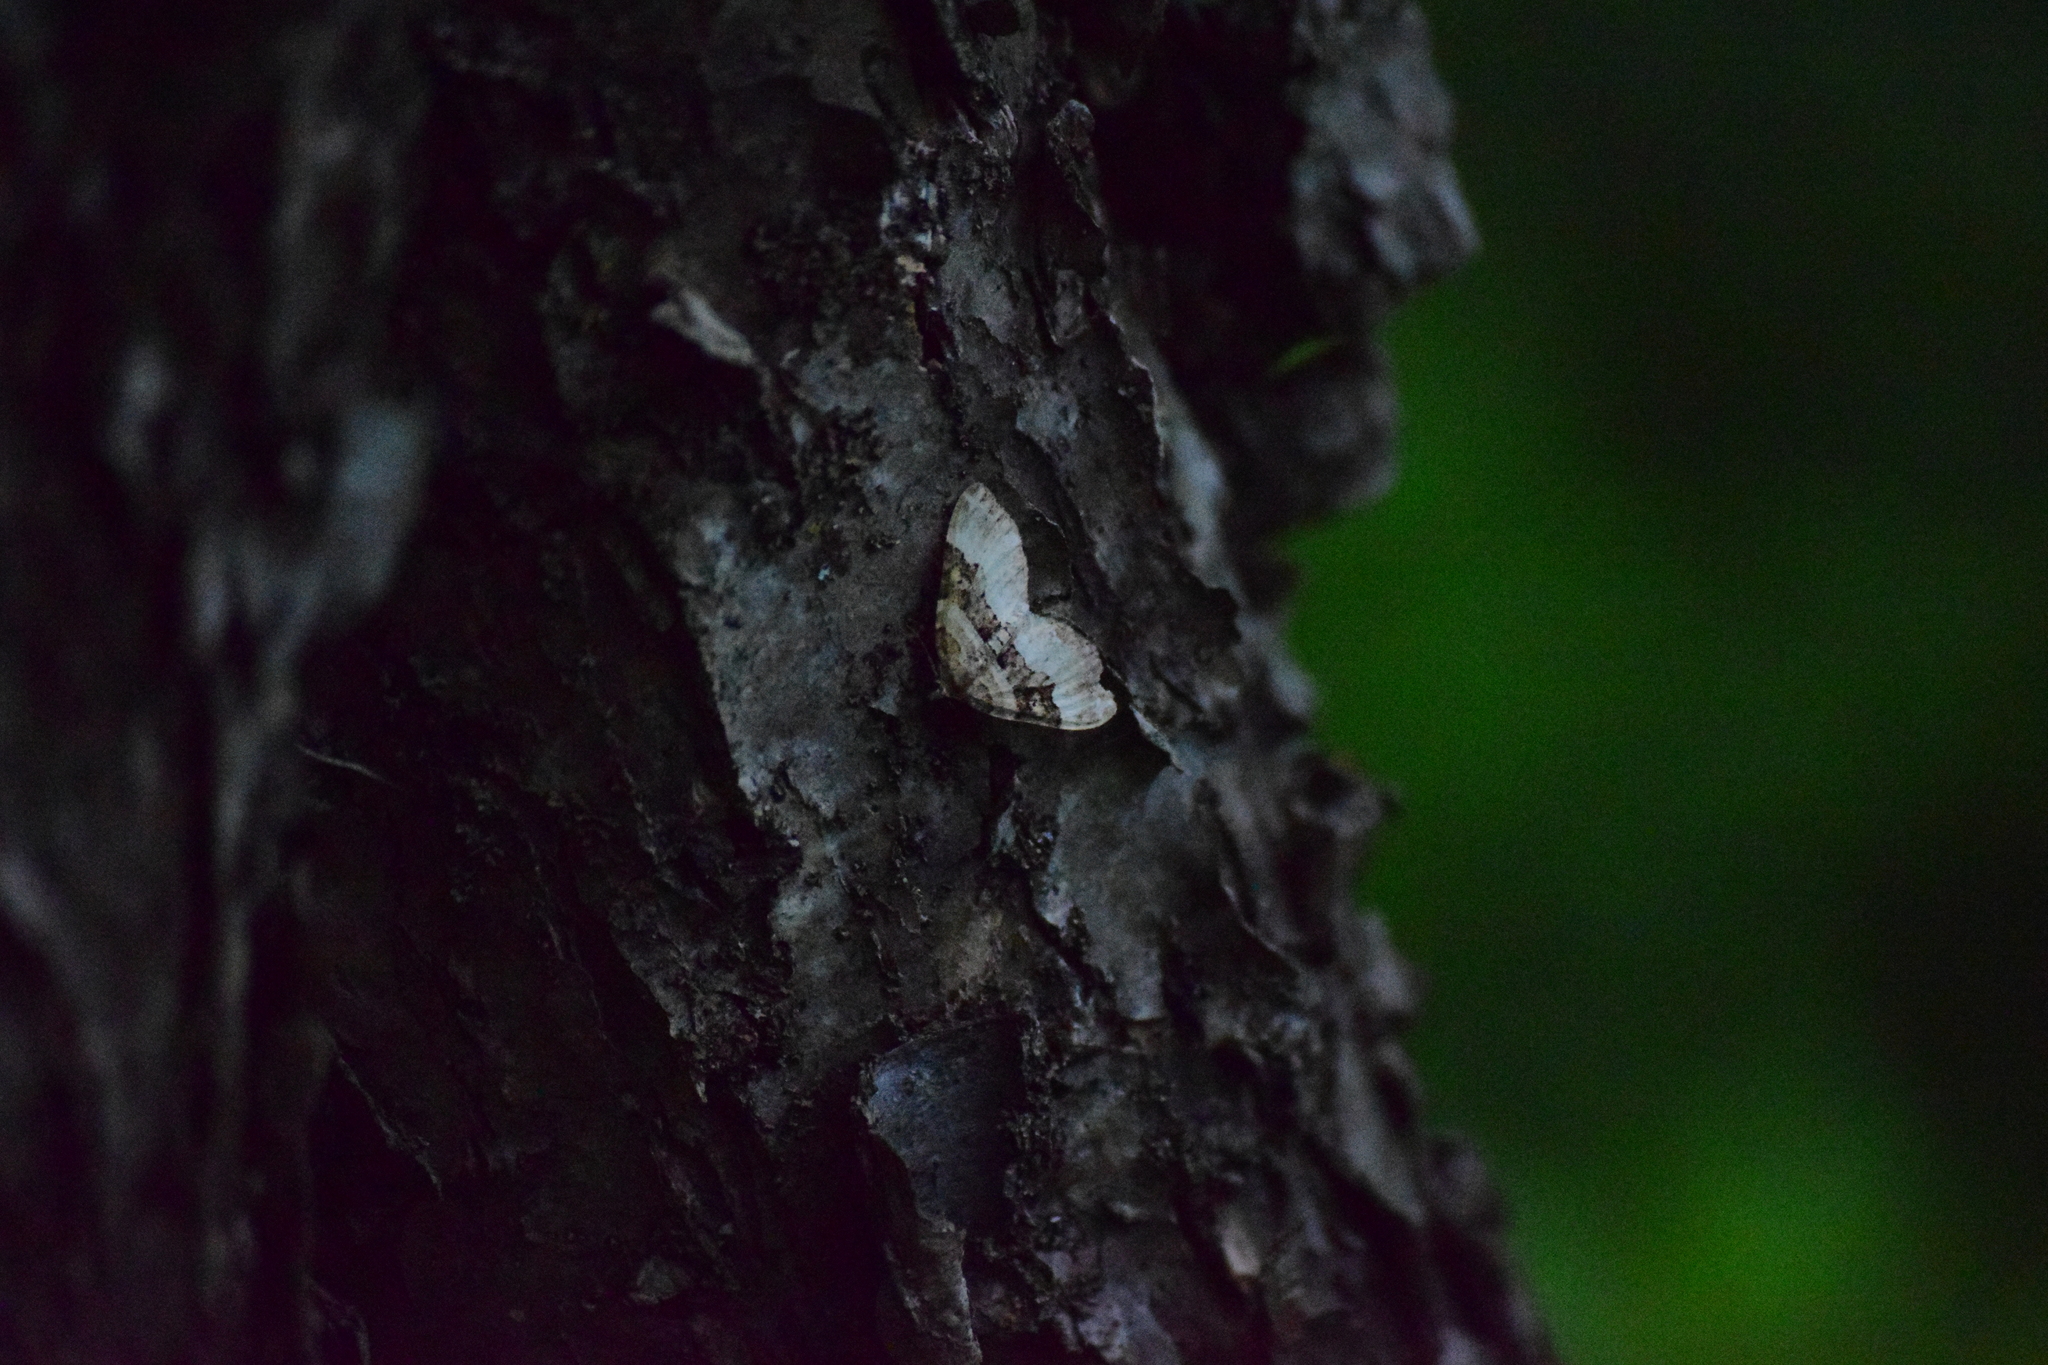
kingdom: Animalia
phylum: Arthropoda
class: Insecta
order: Lepidoptera
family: Geometridae
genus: Xanthorhoe
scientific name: Xanthorhoe lacustrata
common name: Toothed brown carpet
